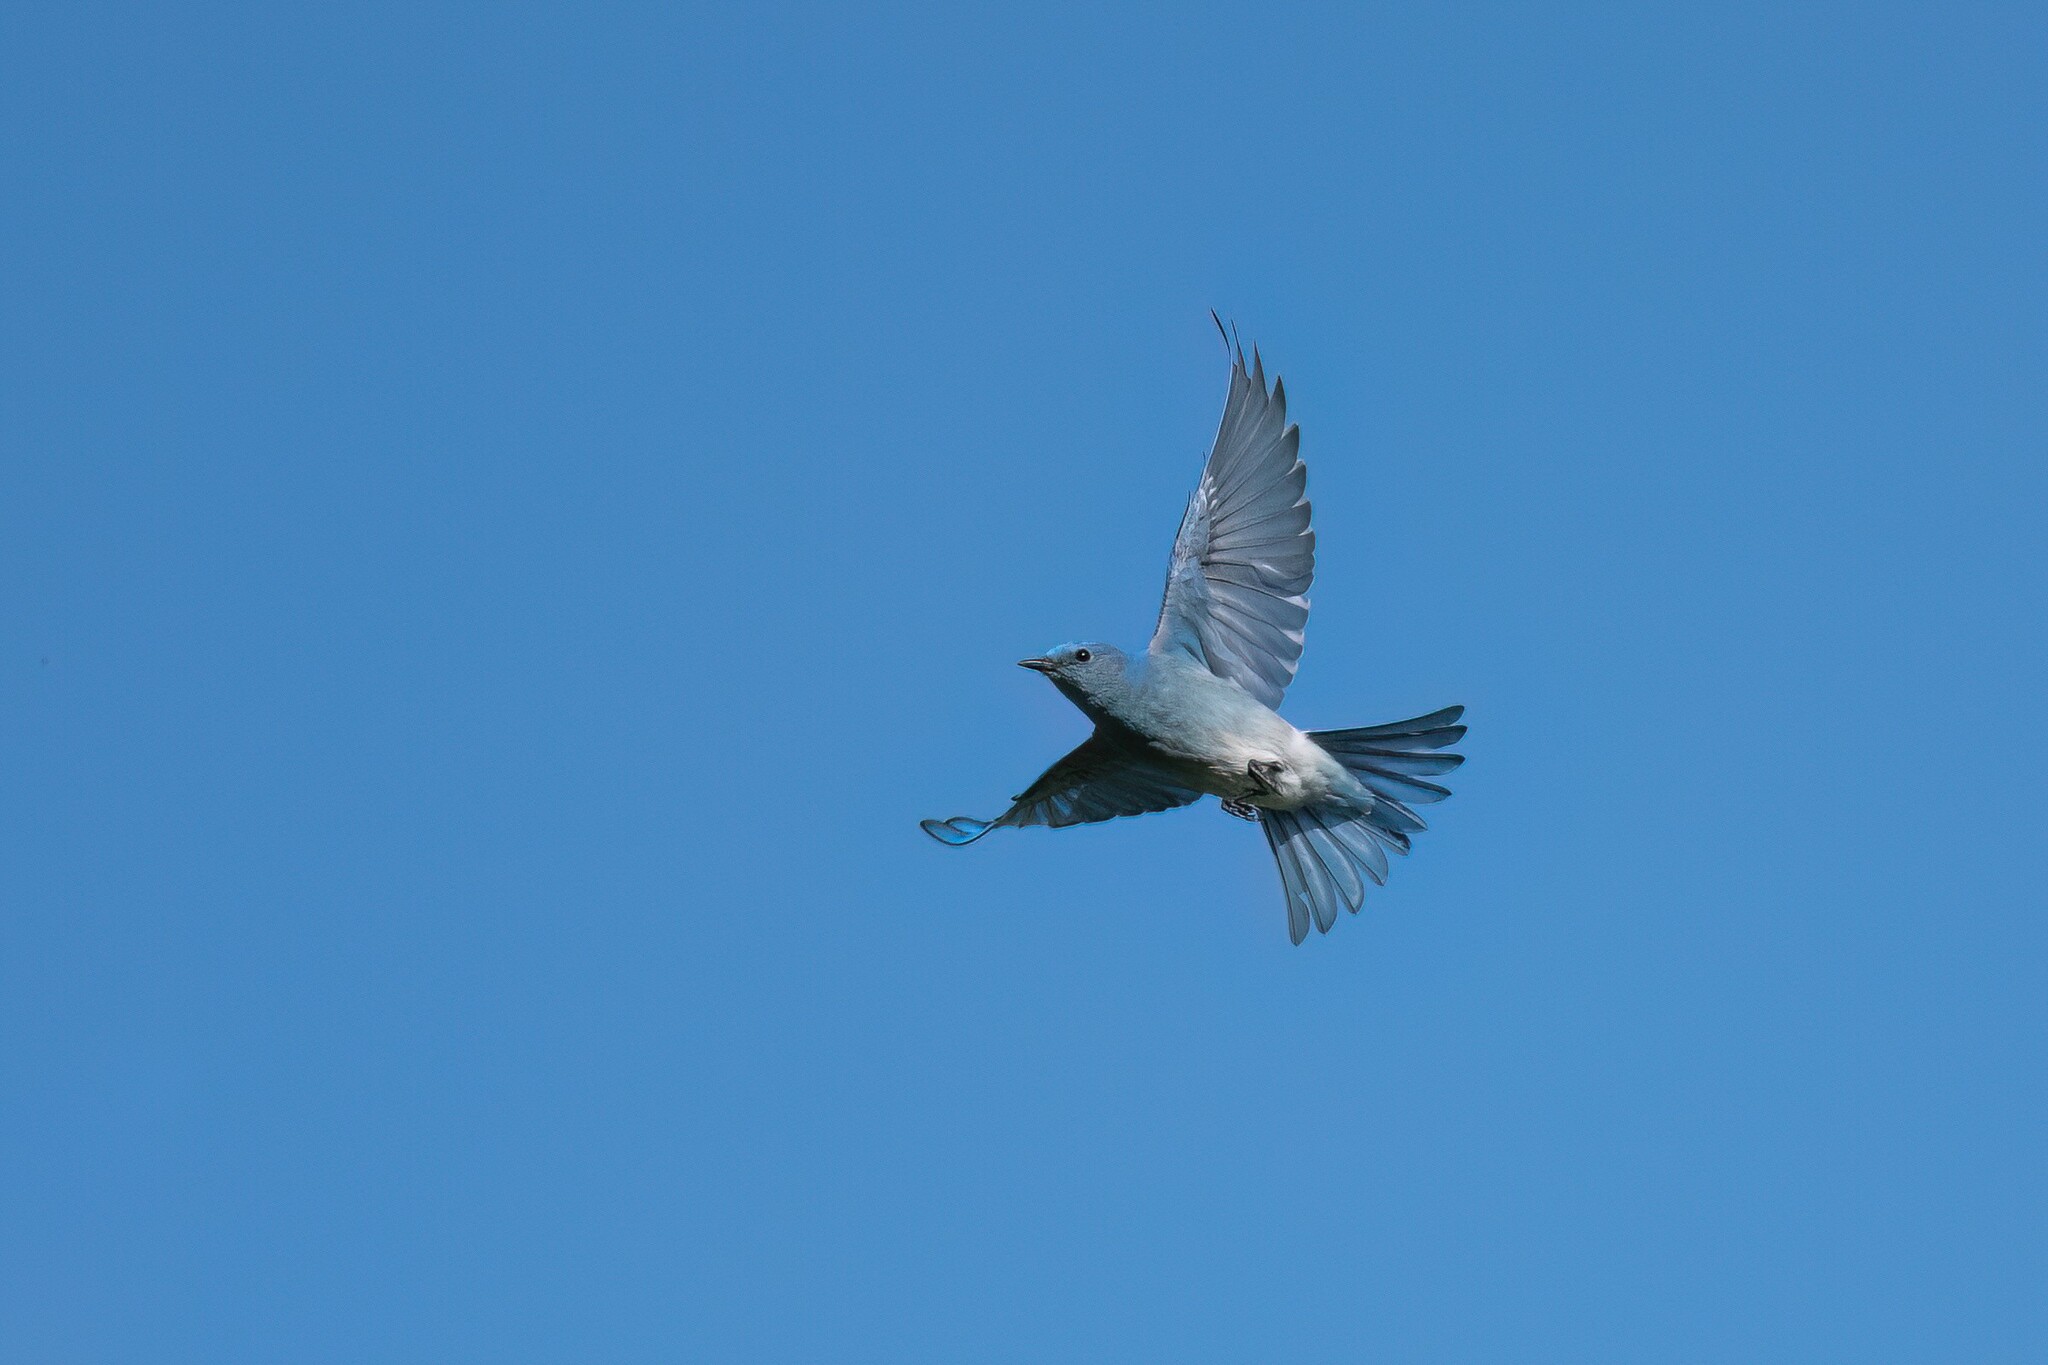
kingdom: Animalia
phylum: Chordata
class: Aves
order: Passeriformes
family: Turdidae
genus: Sialia
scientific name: Sialia currucoides
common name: Mountain bluebird
